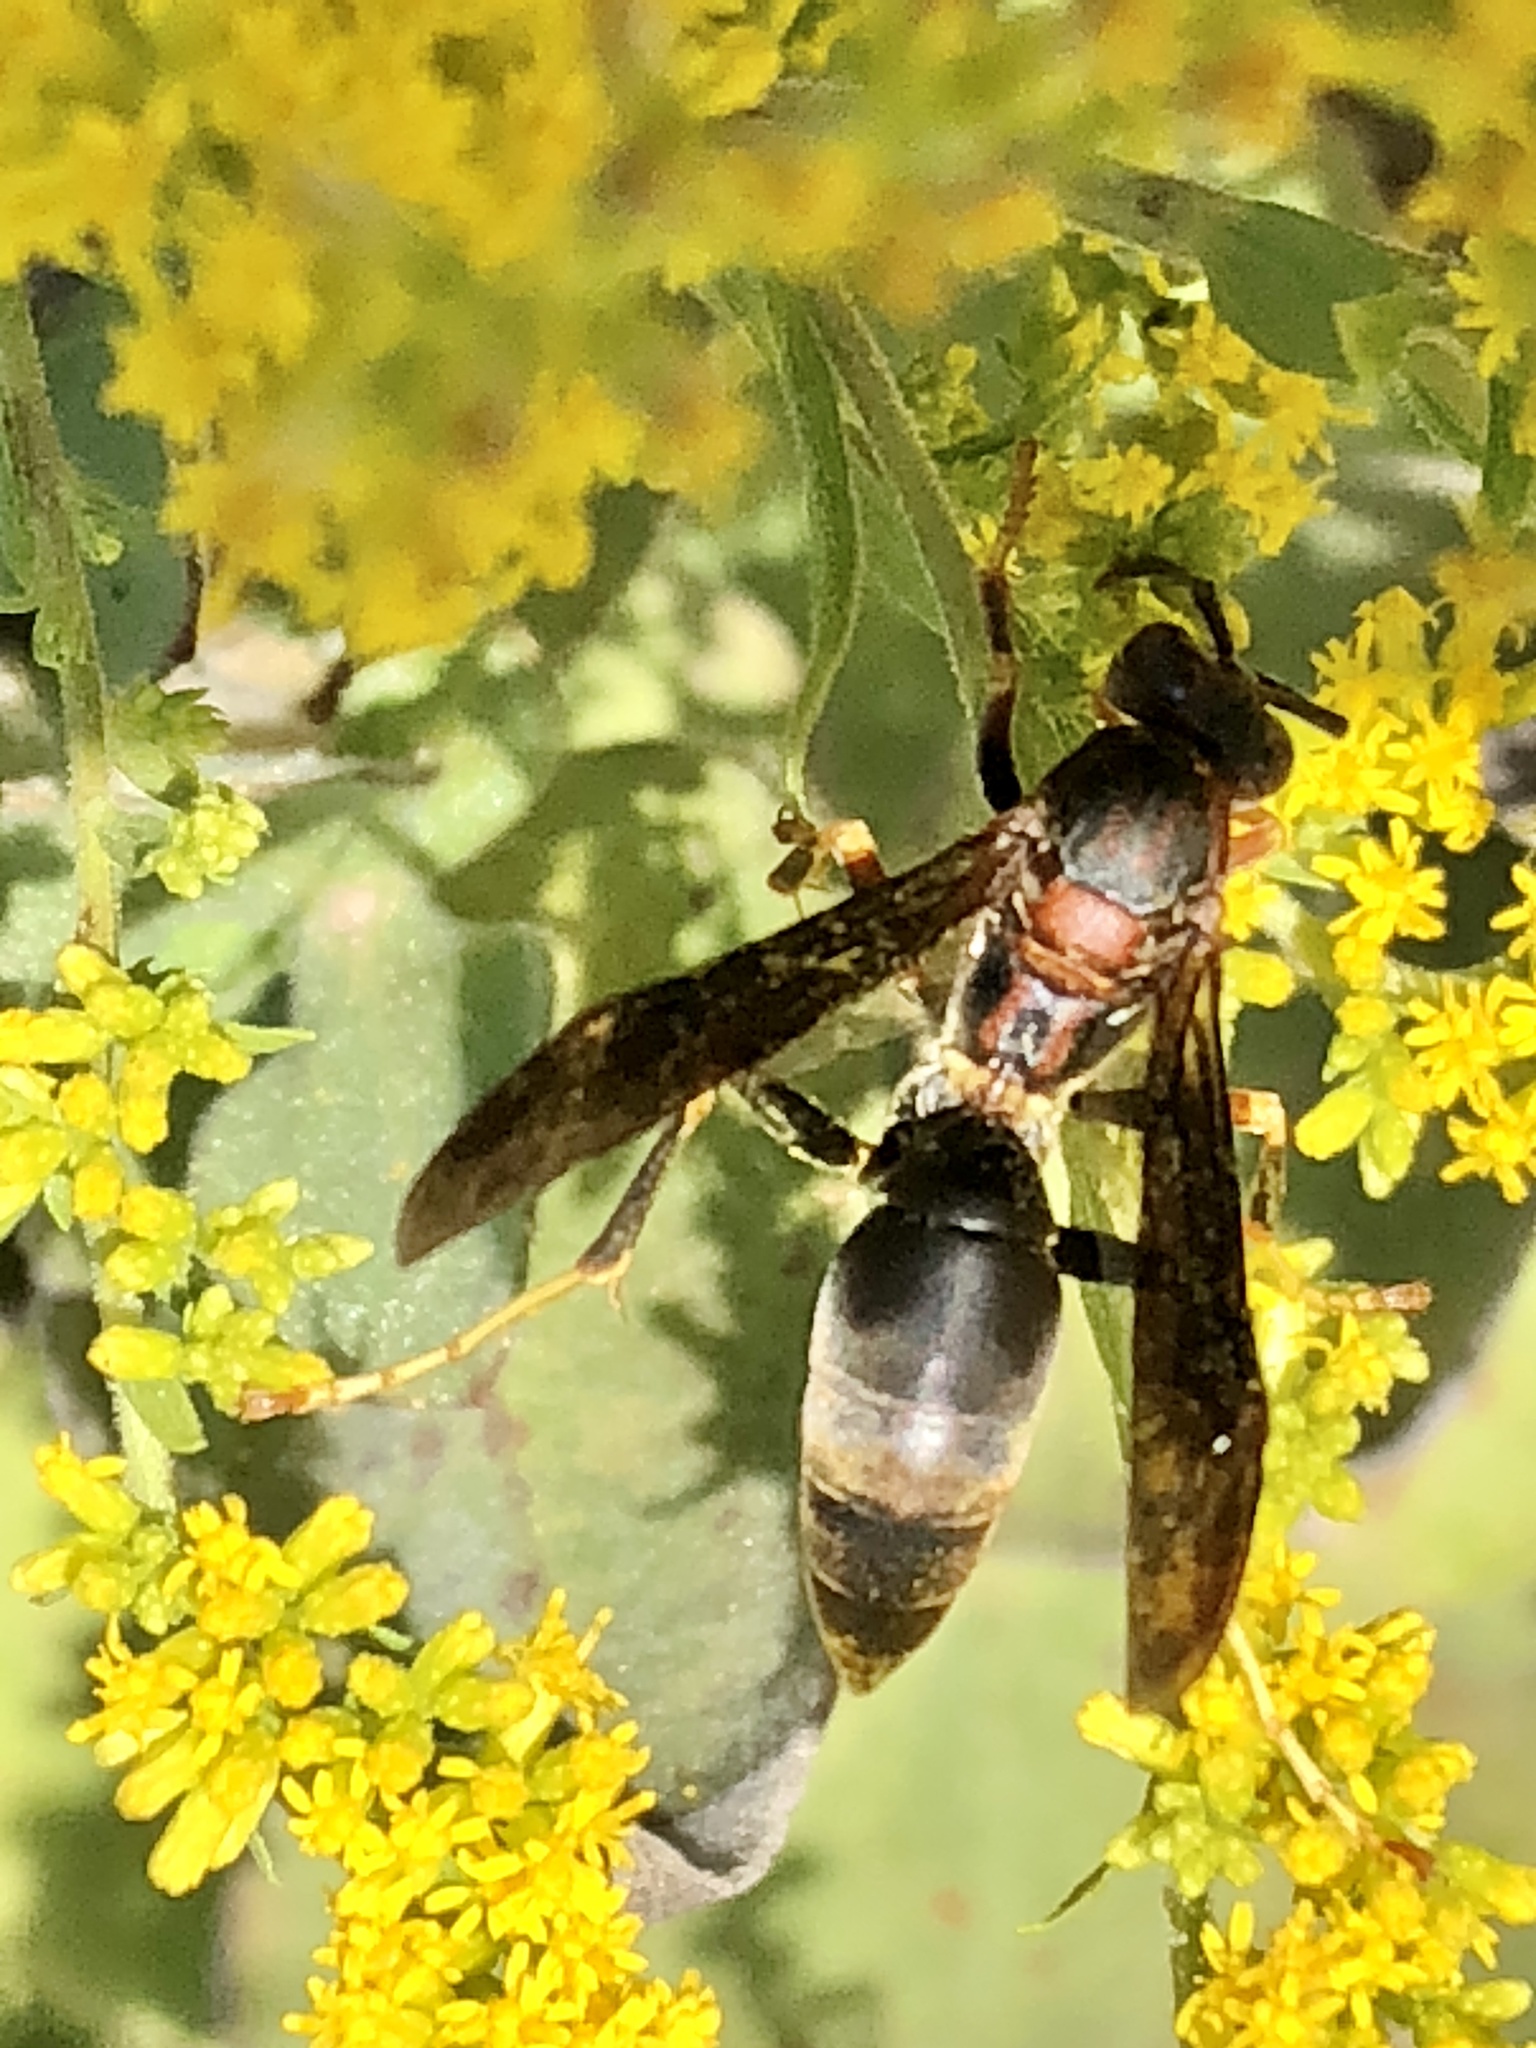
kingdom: Animalia
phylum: Arthropoda
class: Insecta
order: Hymenoptera
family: Eumenidae
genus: Polistes
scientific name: Polistes metricus
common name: Metric paper wasp
